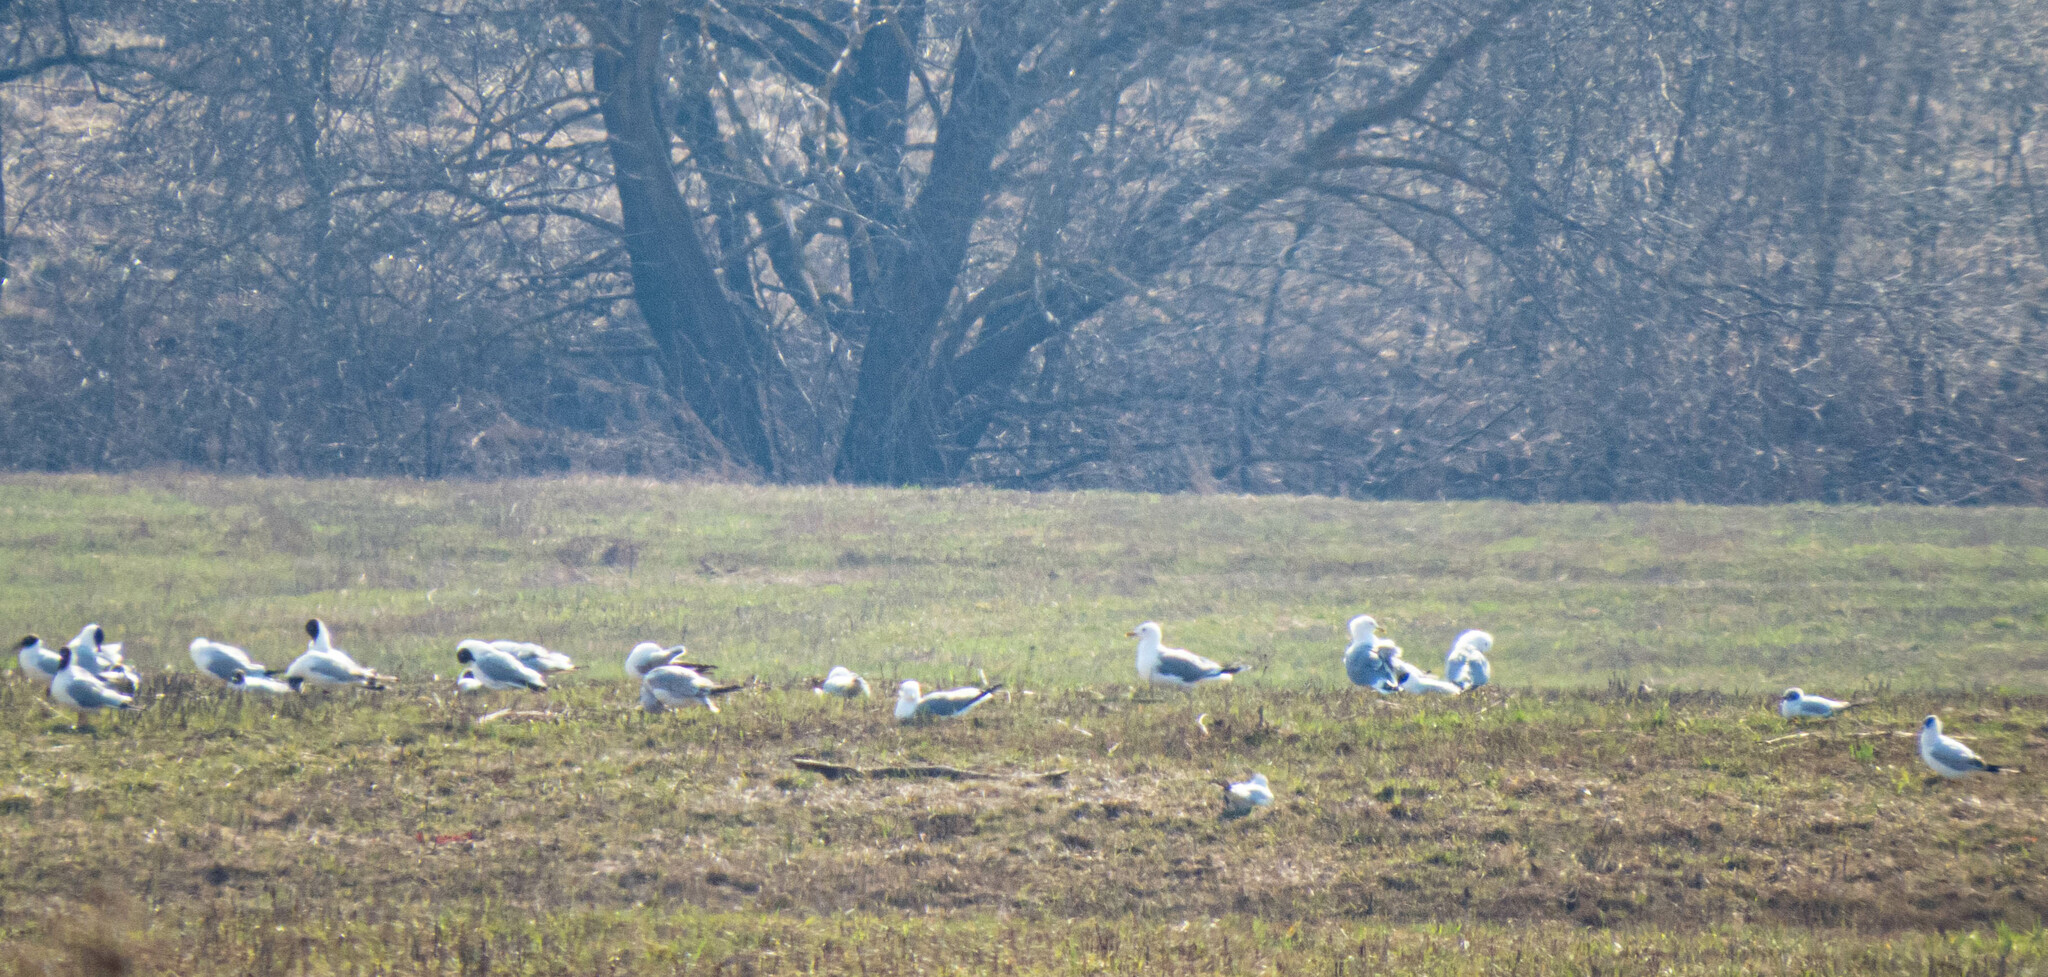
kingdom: Animalia
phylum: Chordata
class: Aves
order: Charadriiformes
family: Laridae
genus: Chroicocephalus
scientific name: Chroicocephalus ridibundus
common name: Black-headed gull
